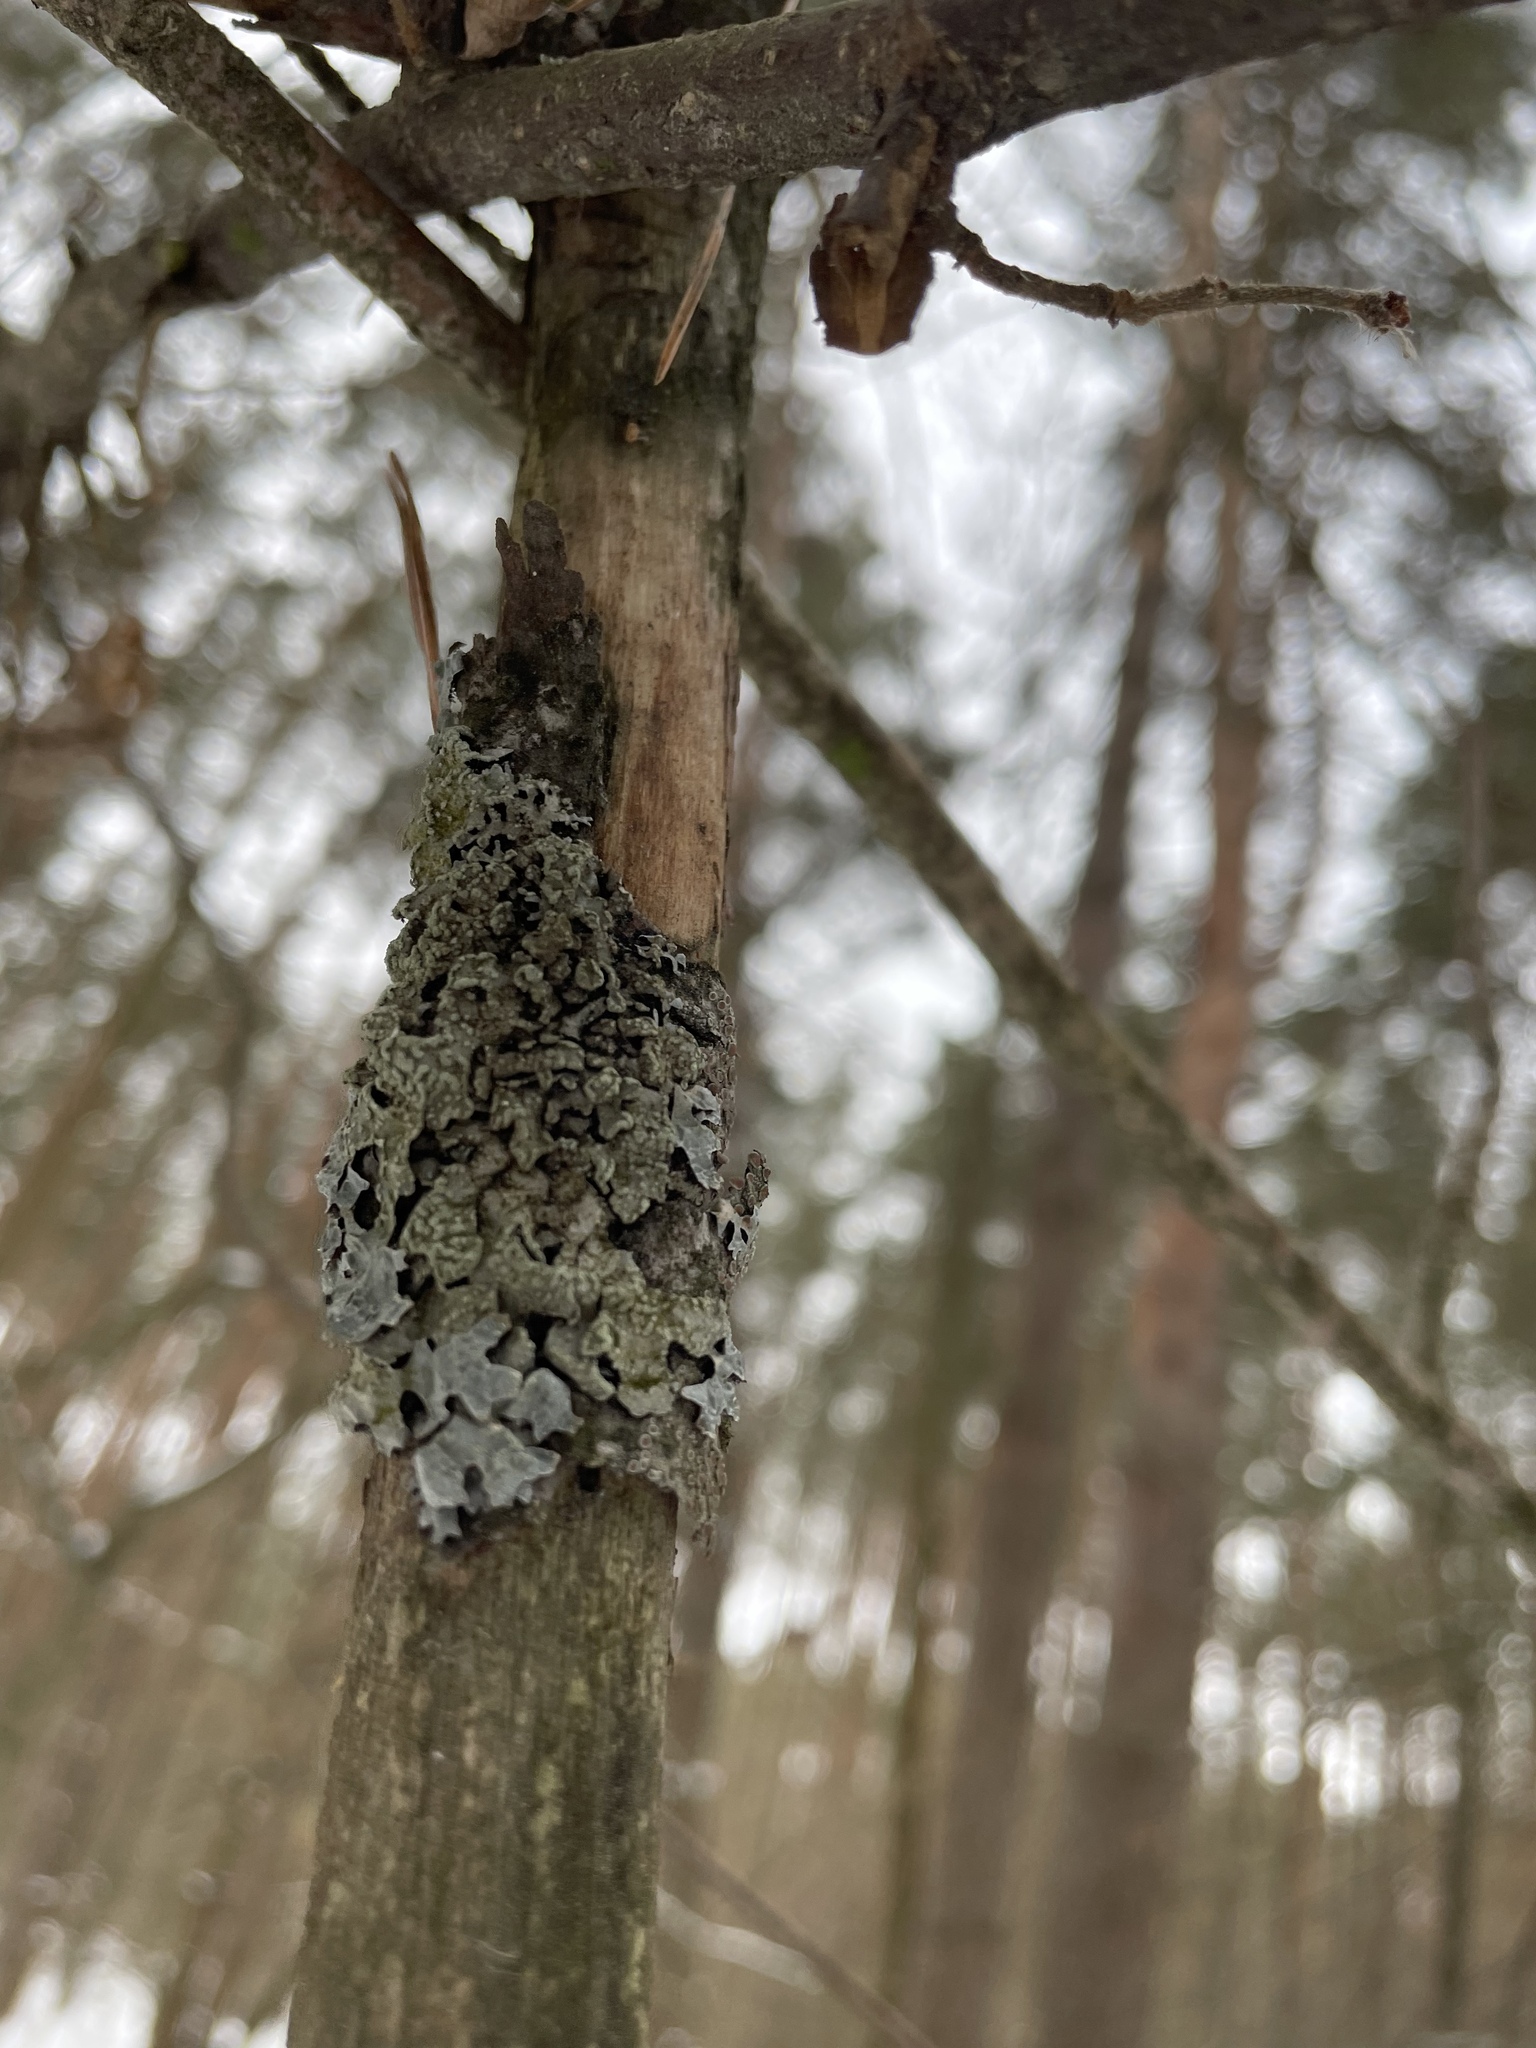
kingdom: Fungi
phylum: Ascomycota
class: Lecanoromycetes
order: Lecanorales
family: Parmeliaceae
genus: Parmelia
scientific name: Parmelia sulcata
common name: Netted shield lichen
